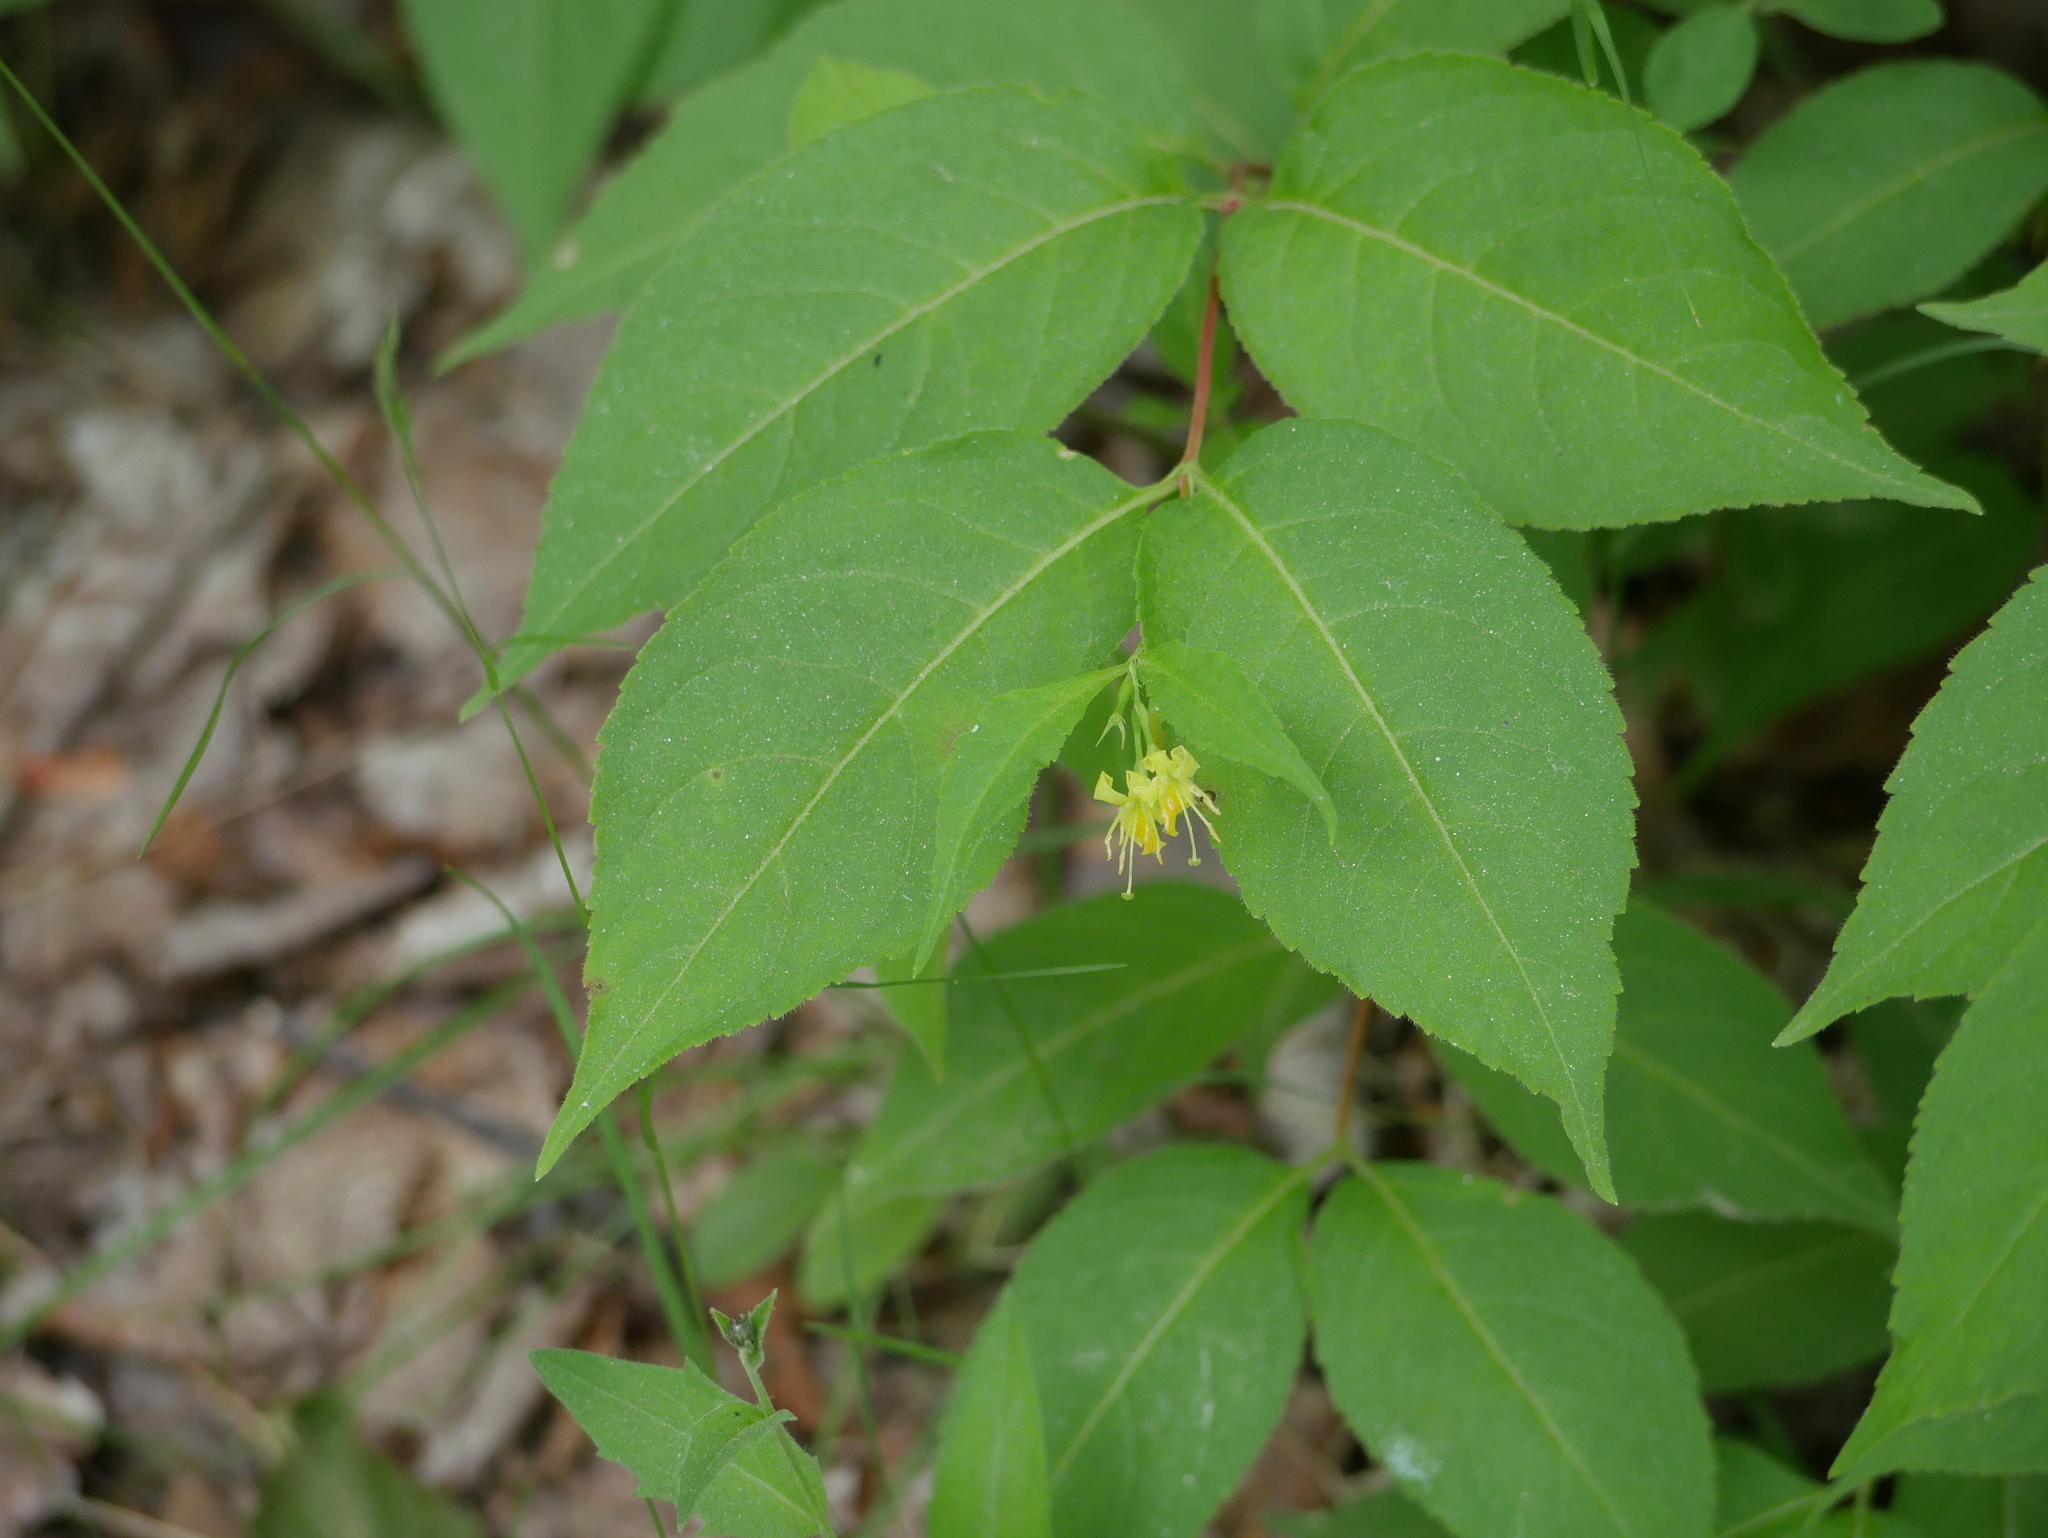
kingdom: Plantae
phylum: Tracheophyta
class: Magnoliopsida
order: Dipsacales
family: Caprifoliaceae
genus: Diervilla
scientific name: Diervilla lonicera
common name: Bush-honeysuckle
